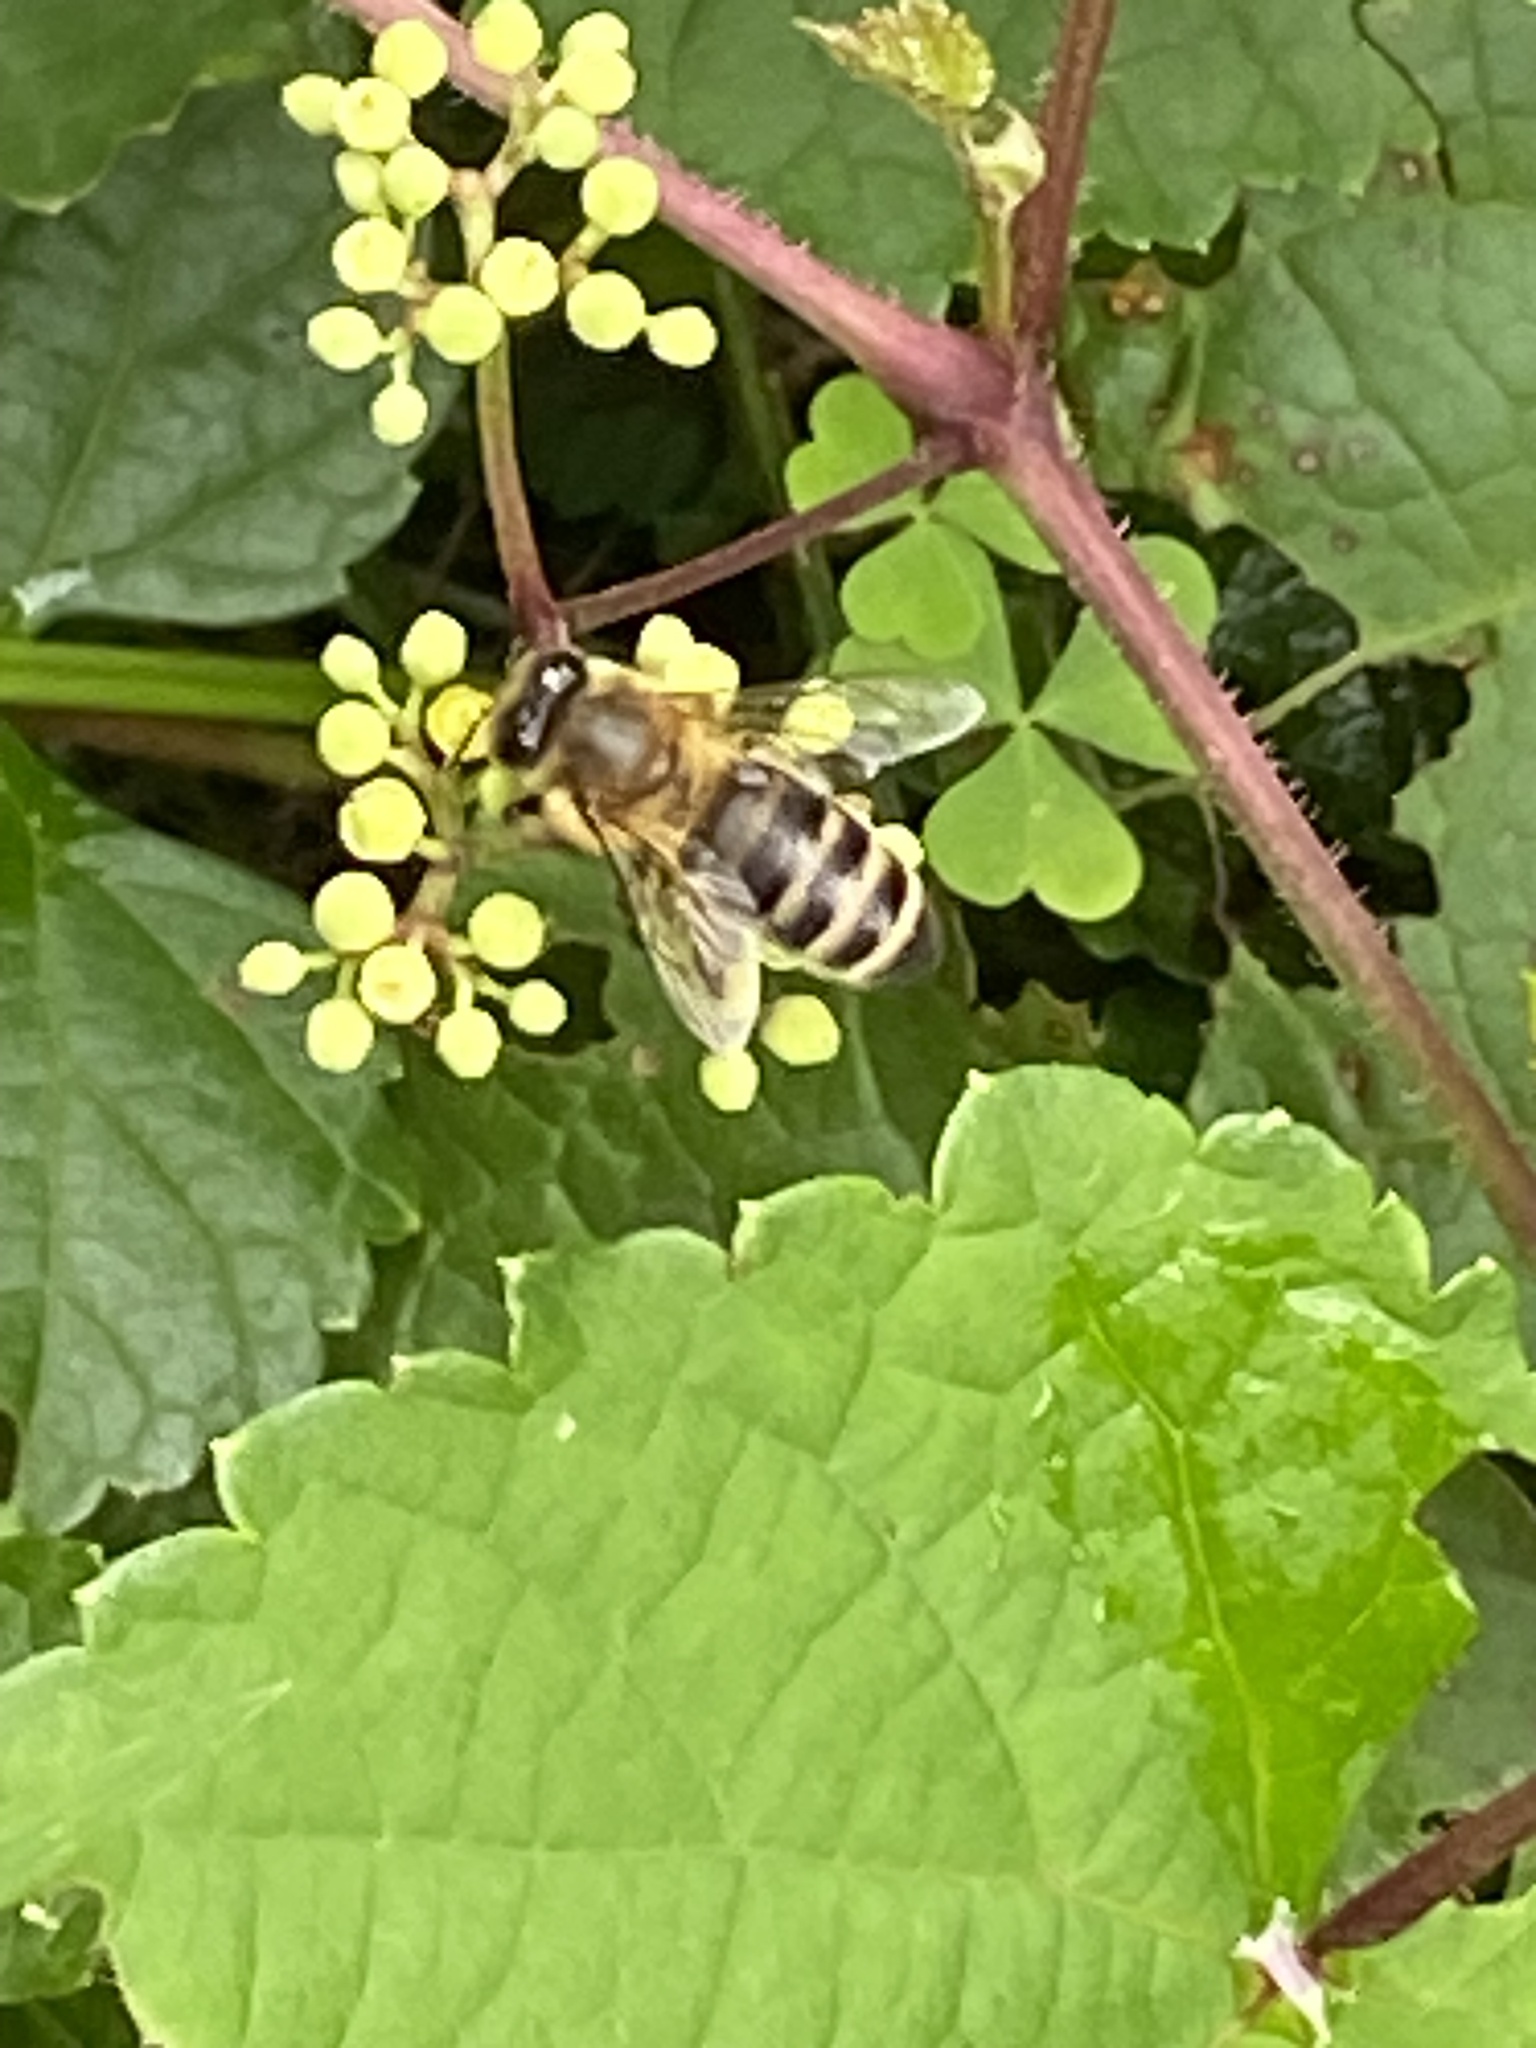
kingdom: Animalia
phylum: Arthropoda
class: Insecta
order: Hymenoptera
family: Apidae
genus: Apis
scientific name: Apis mellifera
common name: Honey bee
